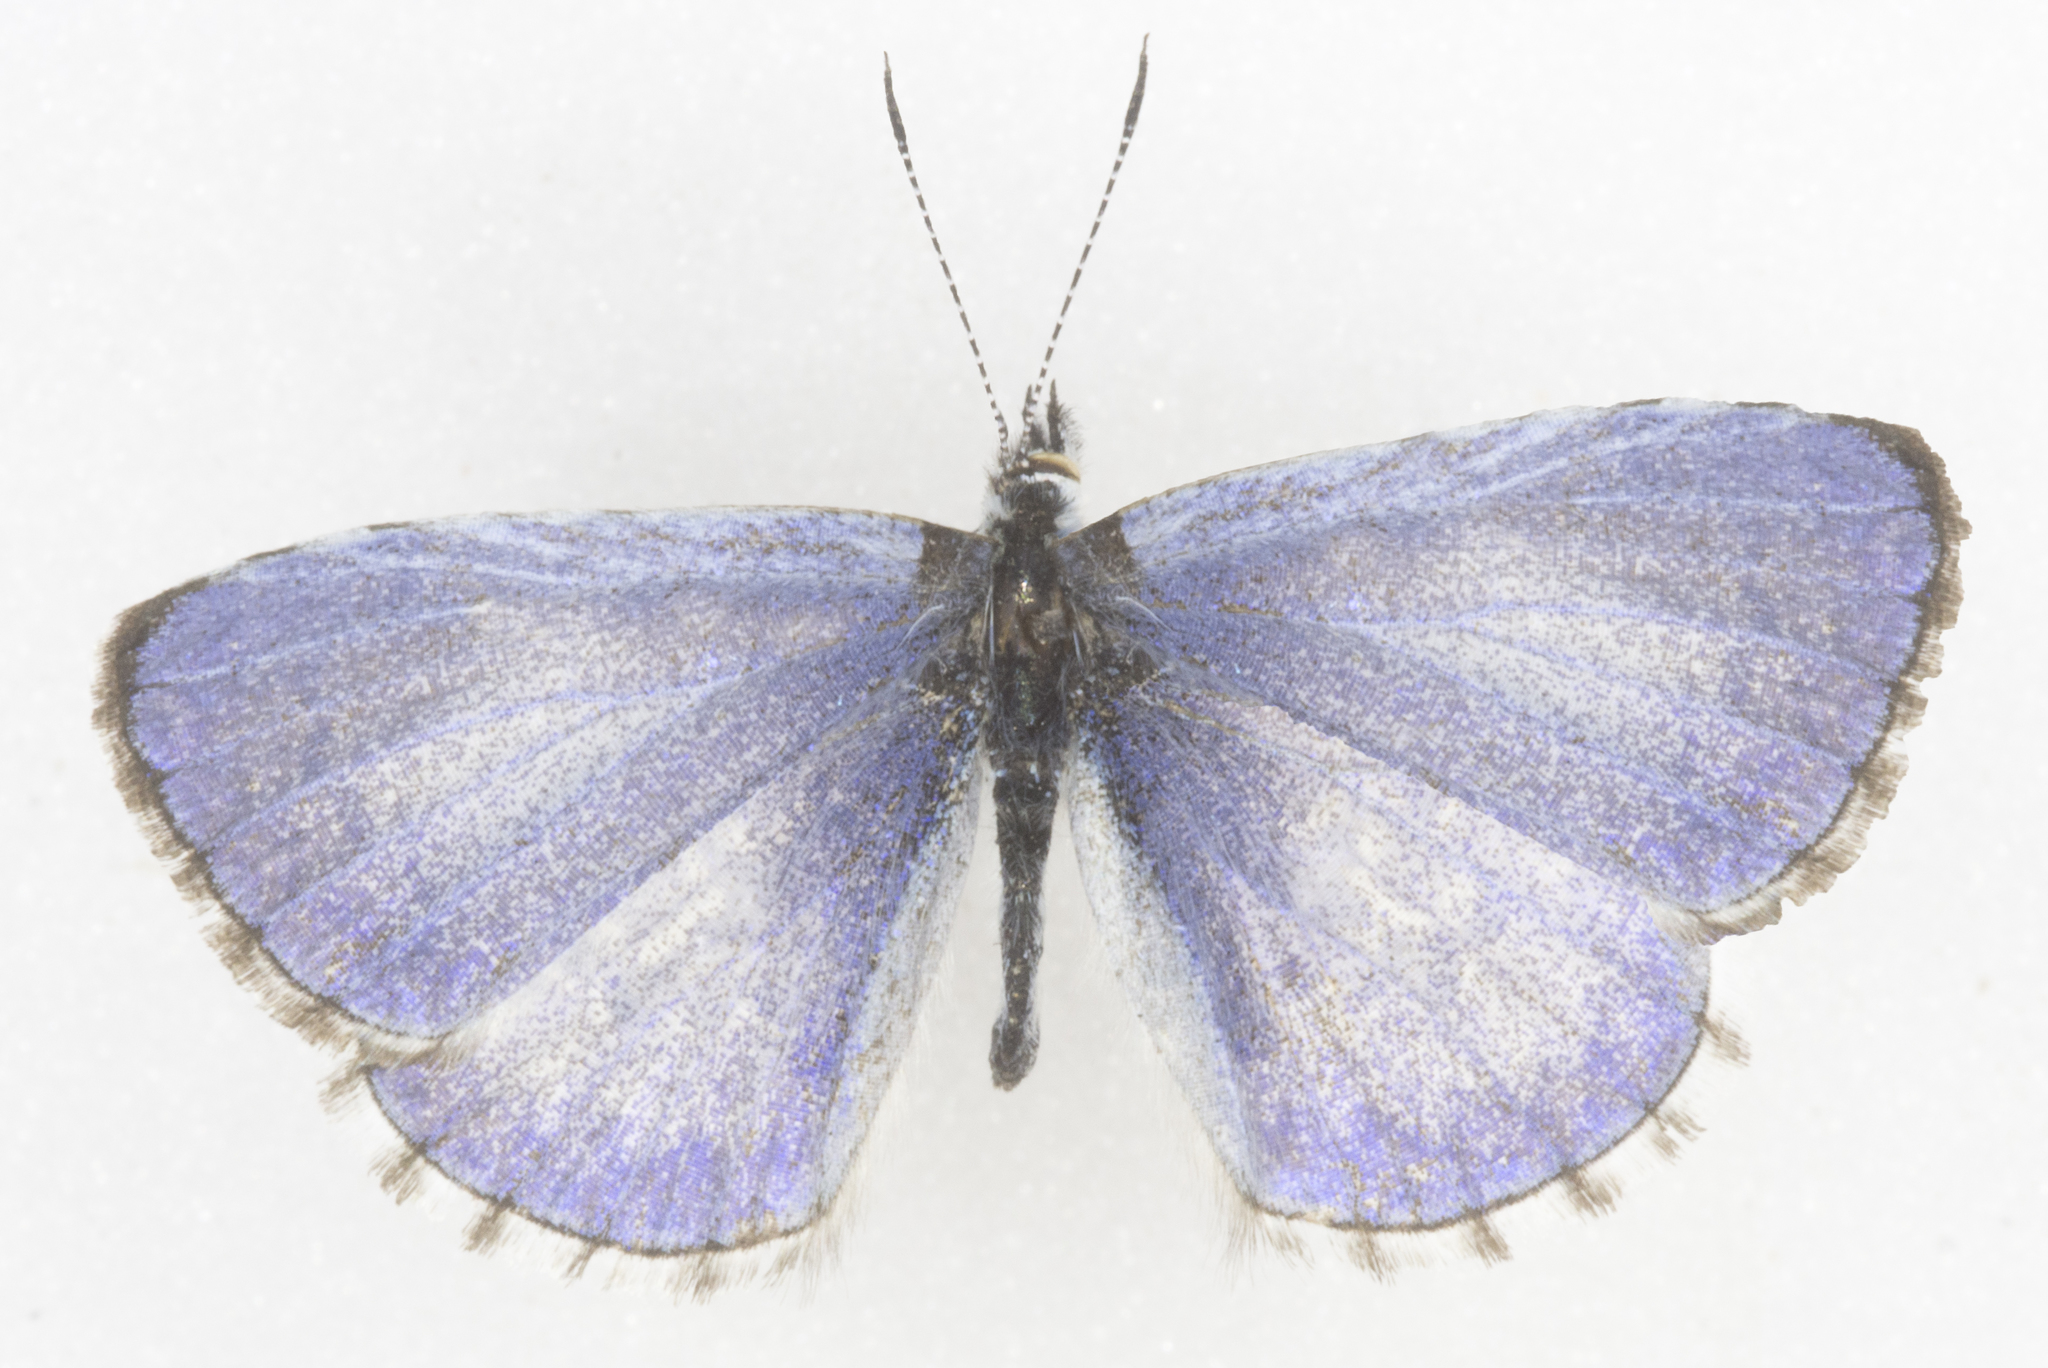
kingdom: Animalia
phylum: Arthropoda
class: Insecta
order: Lepidoptera
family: Lycaenidae
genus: Celastrina
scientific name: Celastrina lucia
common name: Lucia azure
